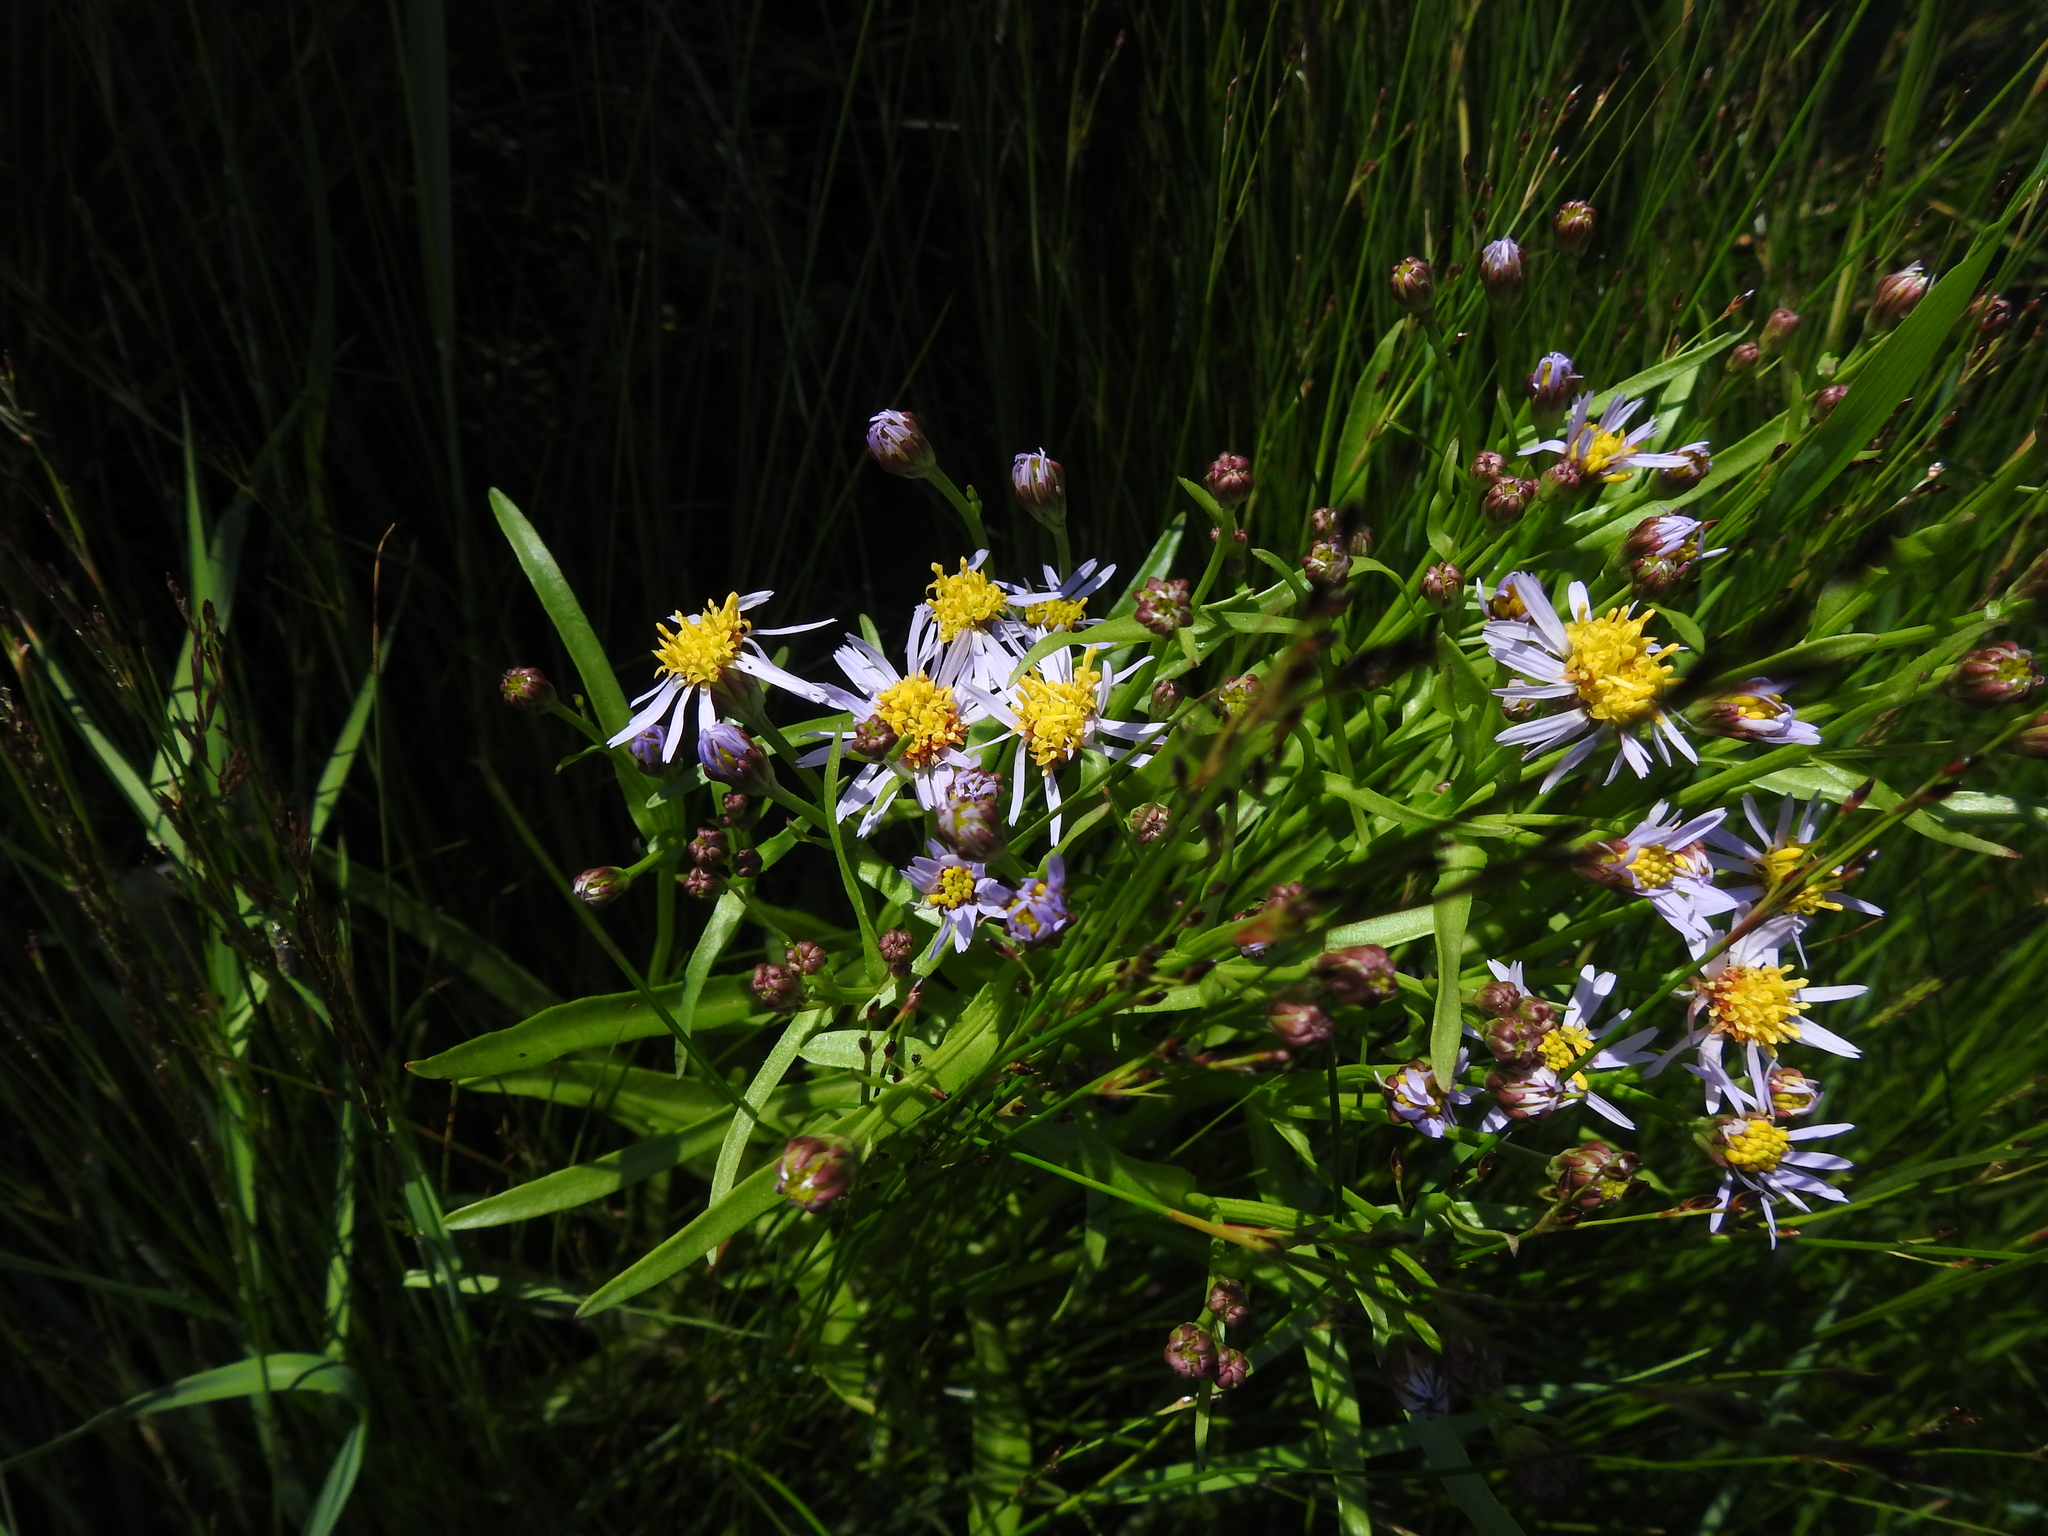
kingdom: Plantae
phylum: Tracheophyta
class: Magnoliopsida
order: Asterales
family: Asteraceae
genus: Tripolium
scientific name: Tripolium pannonicum
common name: Sea aster
